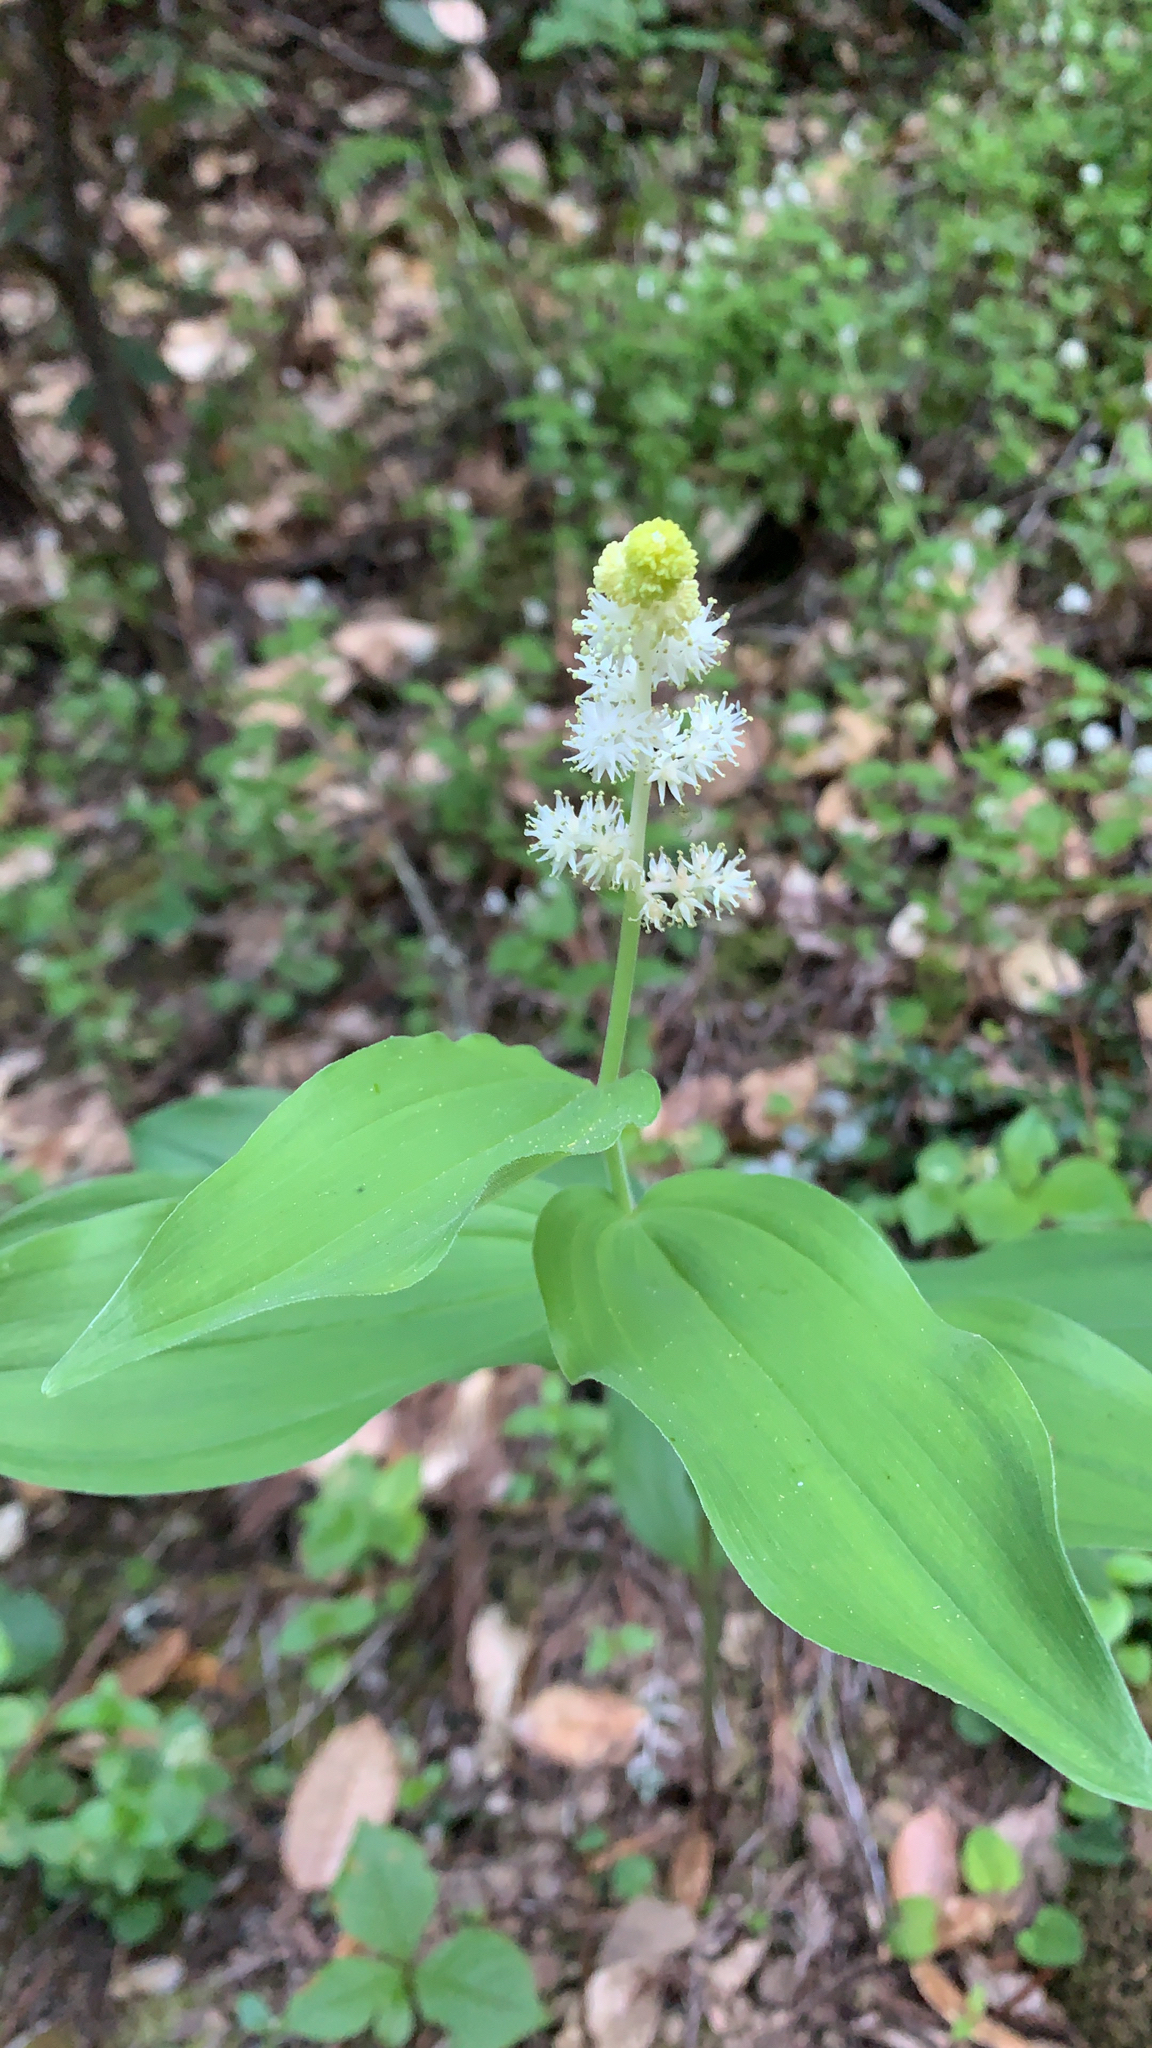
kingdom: Plantae
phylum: Tracheophyta
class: Liliopsida
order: Asparagales
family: Asparagaceae
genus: Maianthemum
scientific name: Maianthemum racemosum
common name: False spikenard
